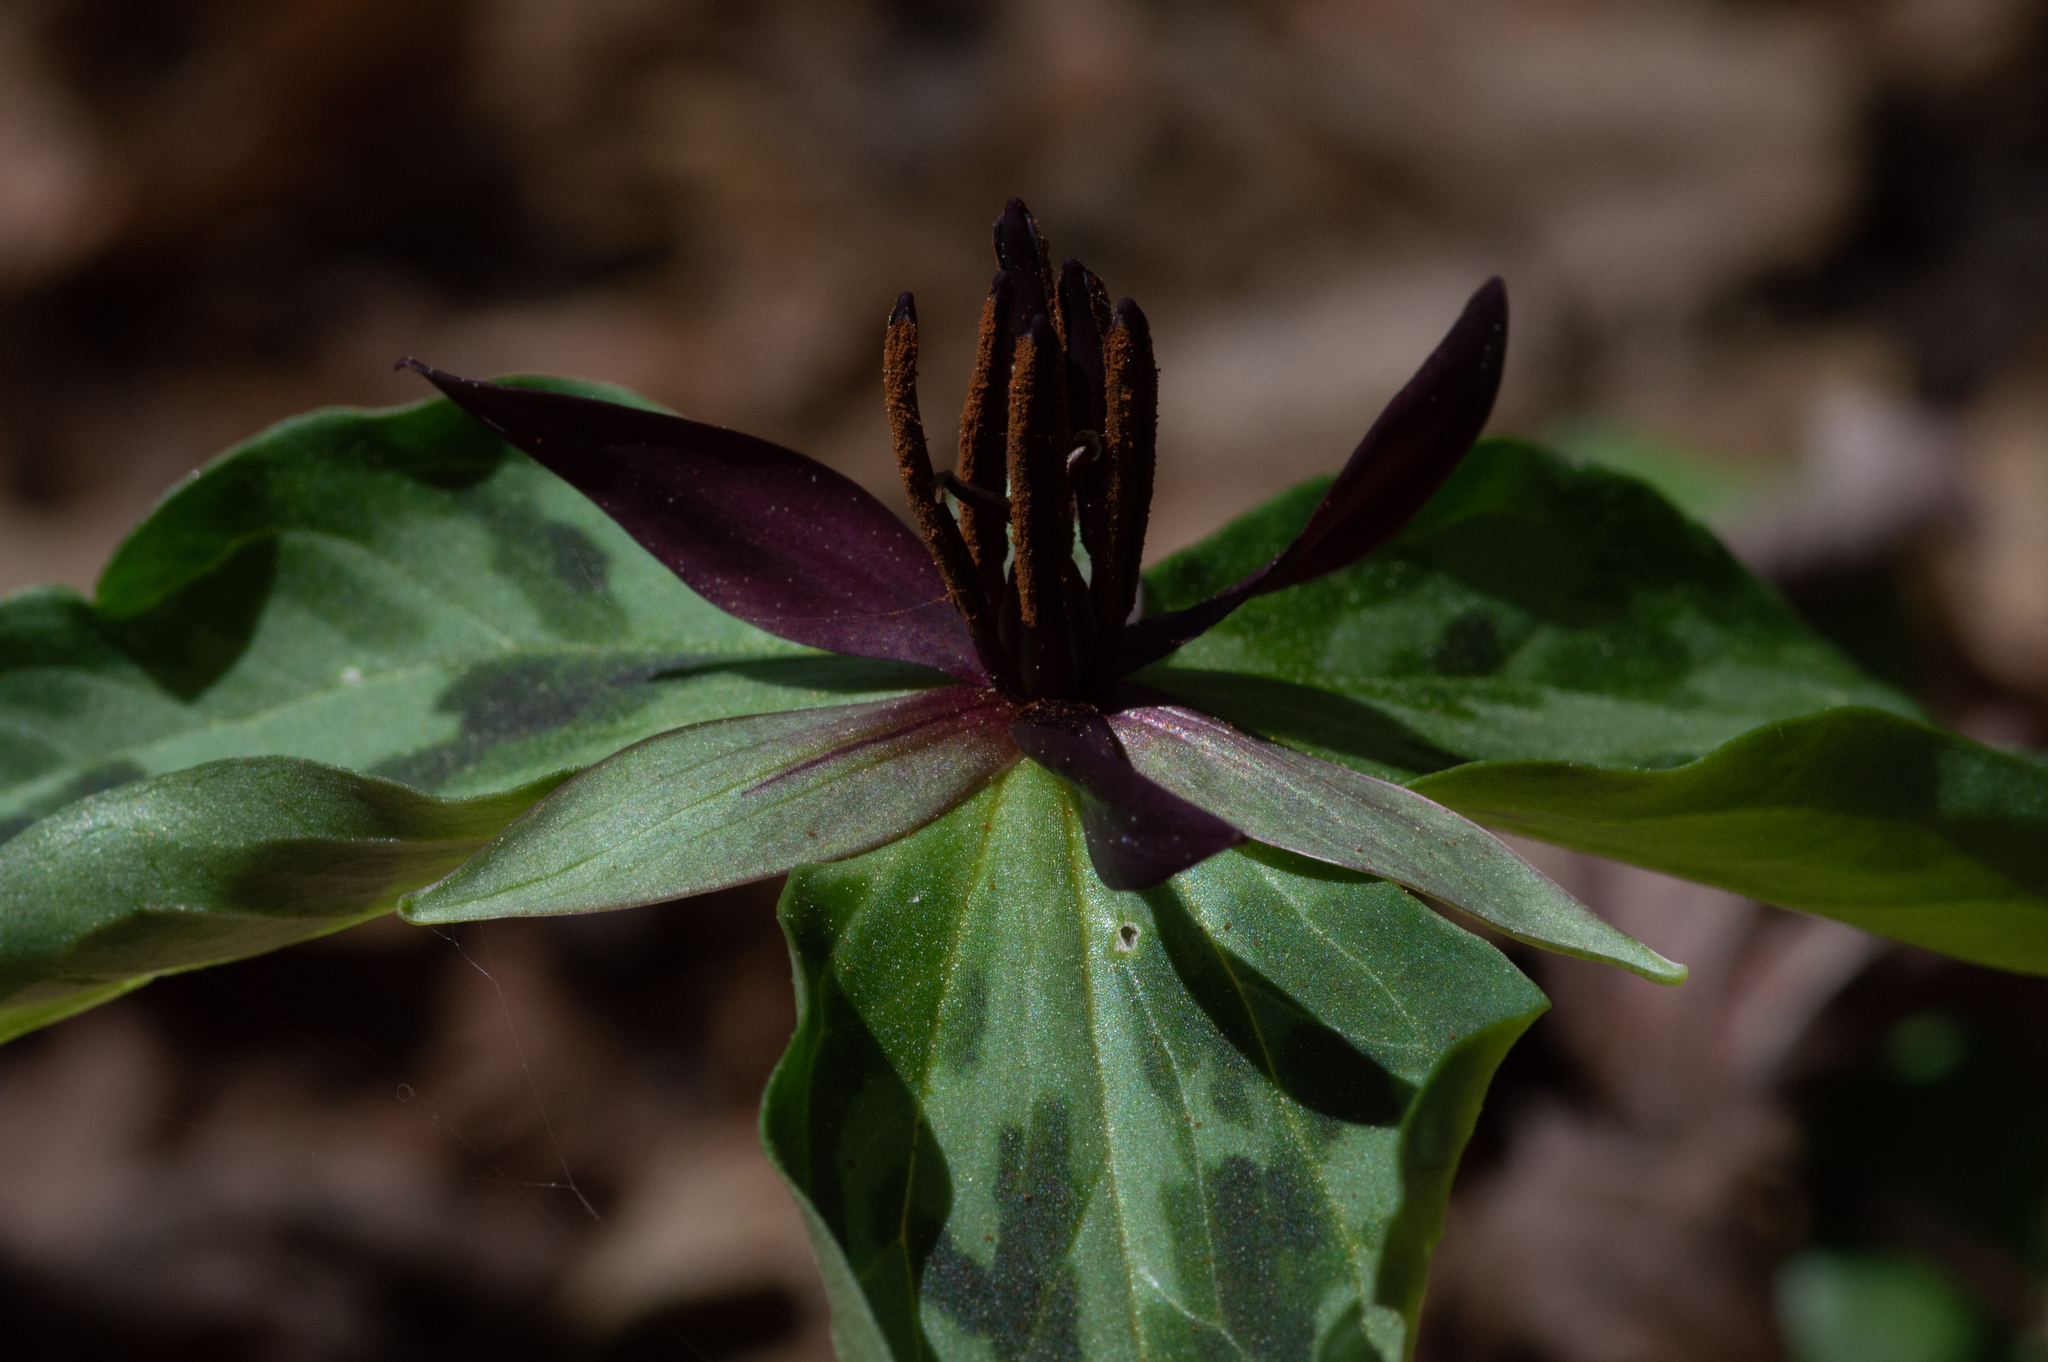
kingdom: Plantae
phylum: Tracheophyta
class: Liliopsida
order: Liliales
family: Melanthiaceae
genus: Trillium
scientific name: Trillium stamineum
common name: Blue ridge wakerobin
